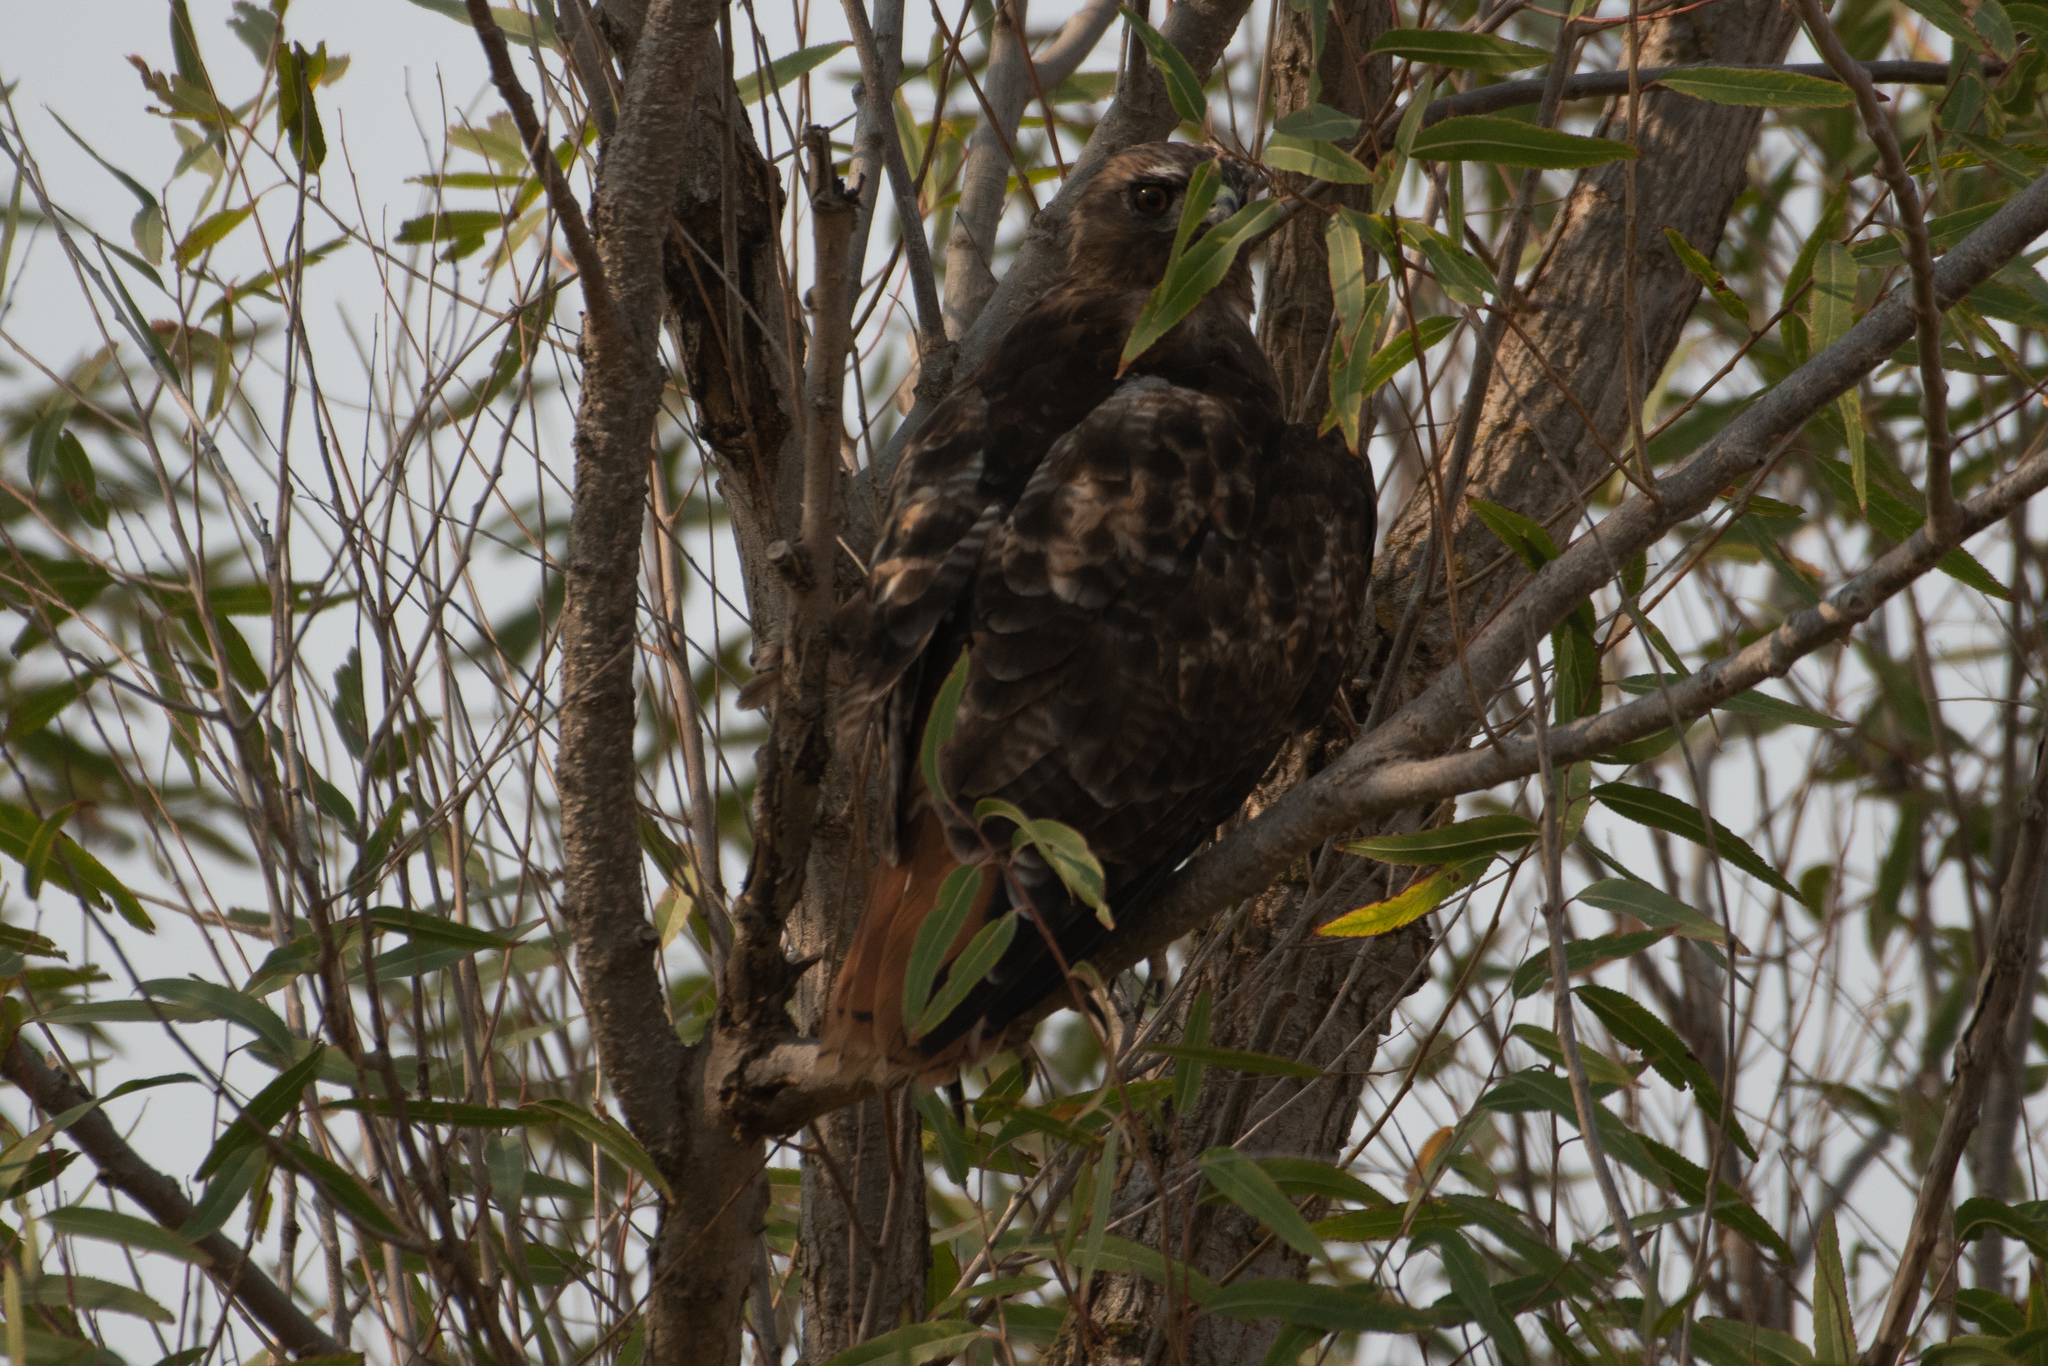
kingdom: Animalia
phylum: Chordata
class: Aves
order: Accipitriformes
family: Accipitridae
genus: Buteo
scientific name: Buteo jamaicensis
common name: Red-tailed hawk
